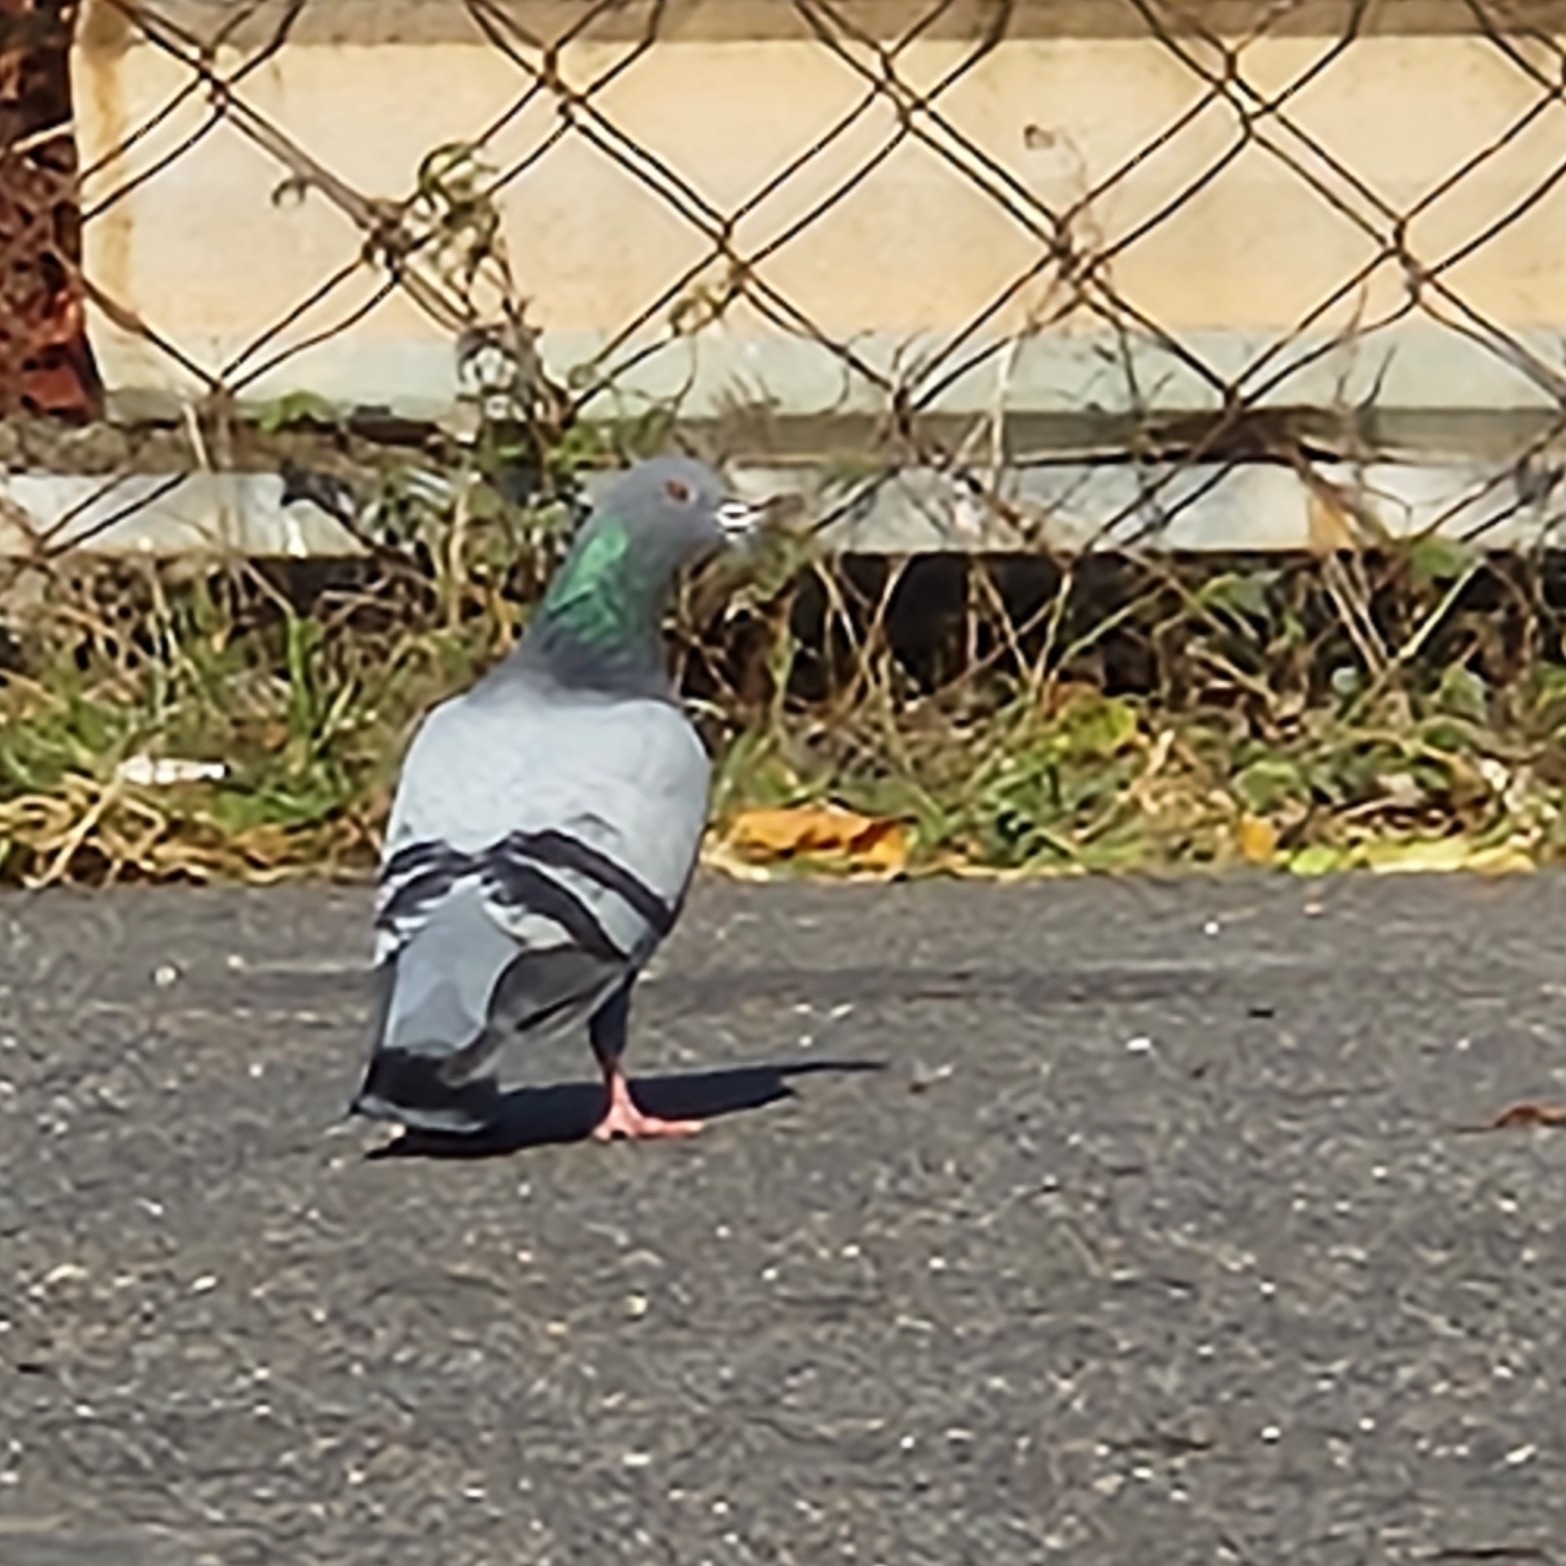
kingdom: Animalia
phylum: Chordata
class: Aves
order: Columbiformes
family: Columbidae
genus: Columba
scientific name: Columba livia
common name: Rock pigeon
